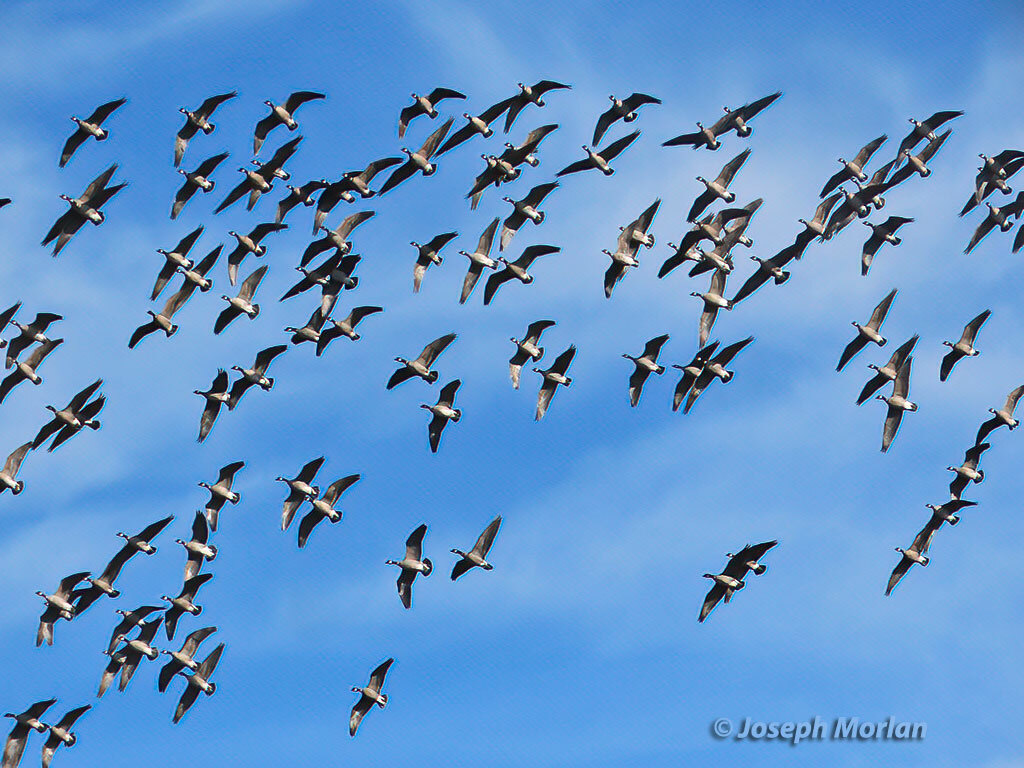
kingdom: Animalia
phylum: Chordata
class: Aves
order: Anseriformes
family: Anatidae
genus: Branta
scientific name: Branta hutchinsii
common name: Cackling goose
